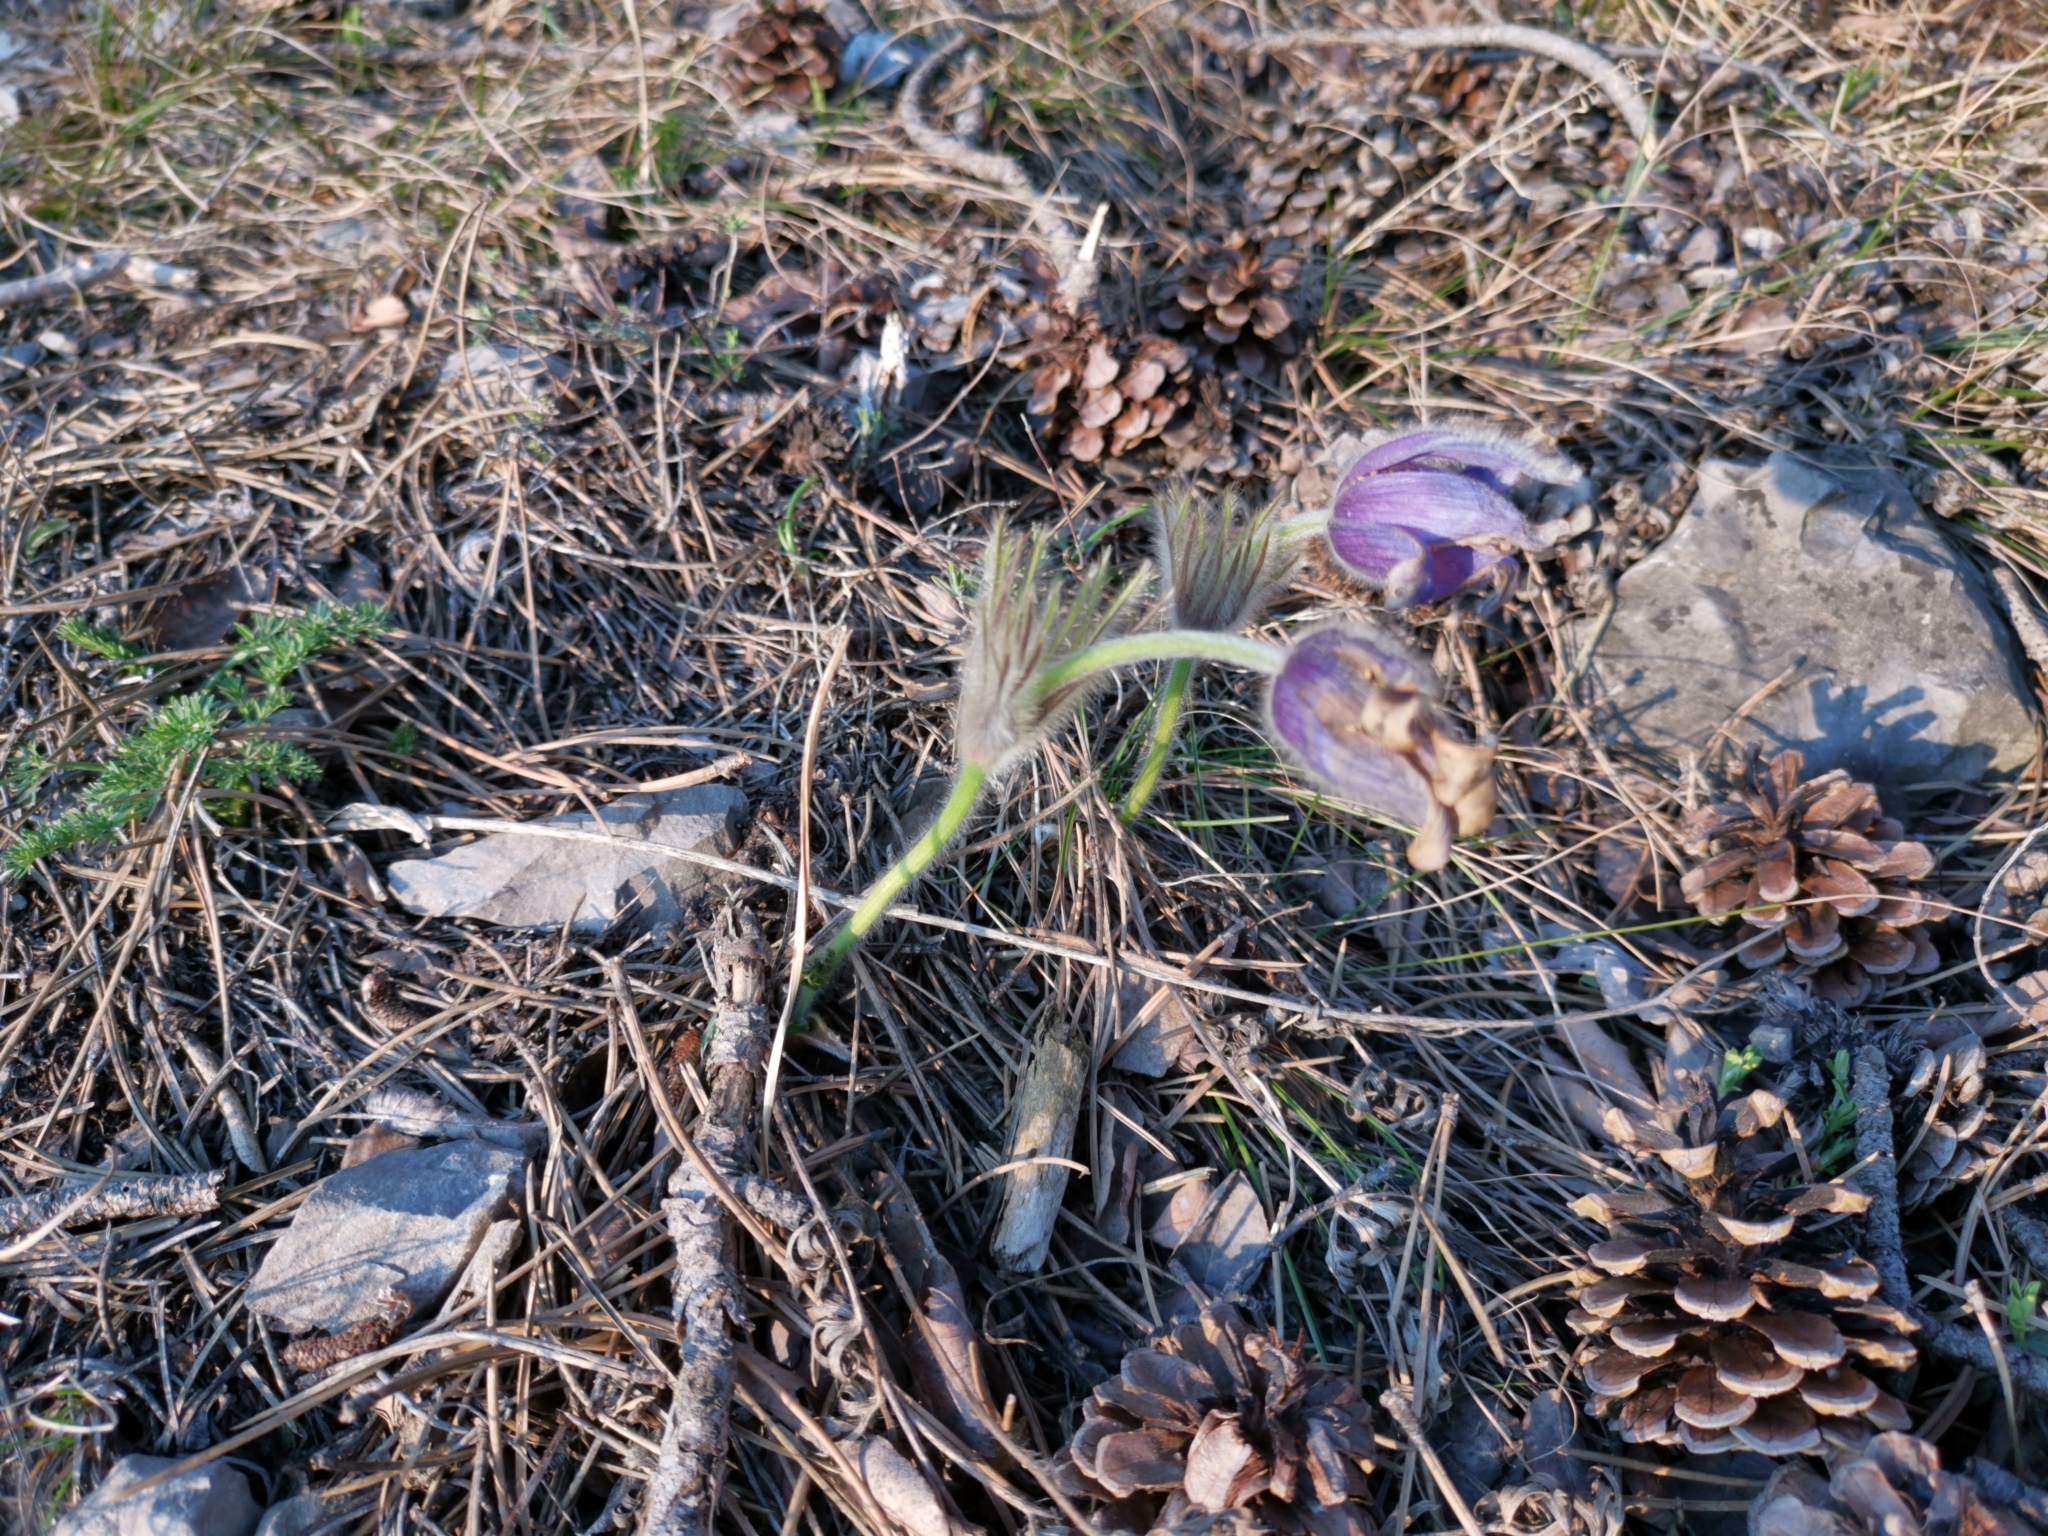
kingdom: Plantae
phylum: Tracheophyta
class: Magnoliopsida
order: Ranunculales
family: Ranunculaceae
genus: Pulsatilla
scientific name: Pulsatilla grandis
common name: Greater pasque flower
